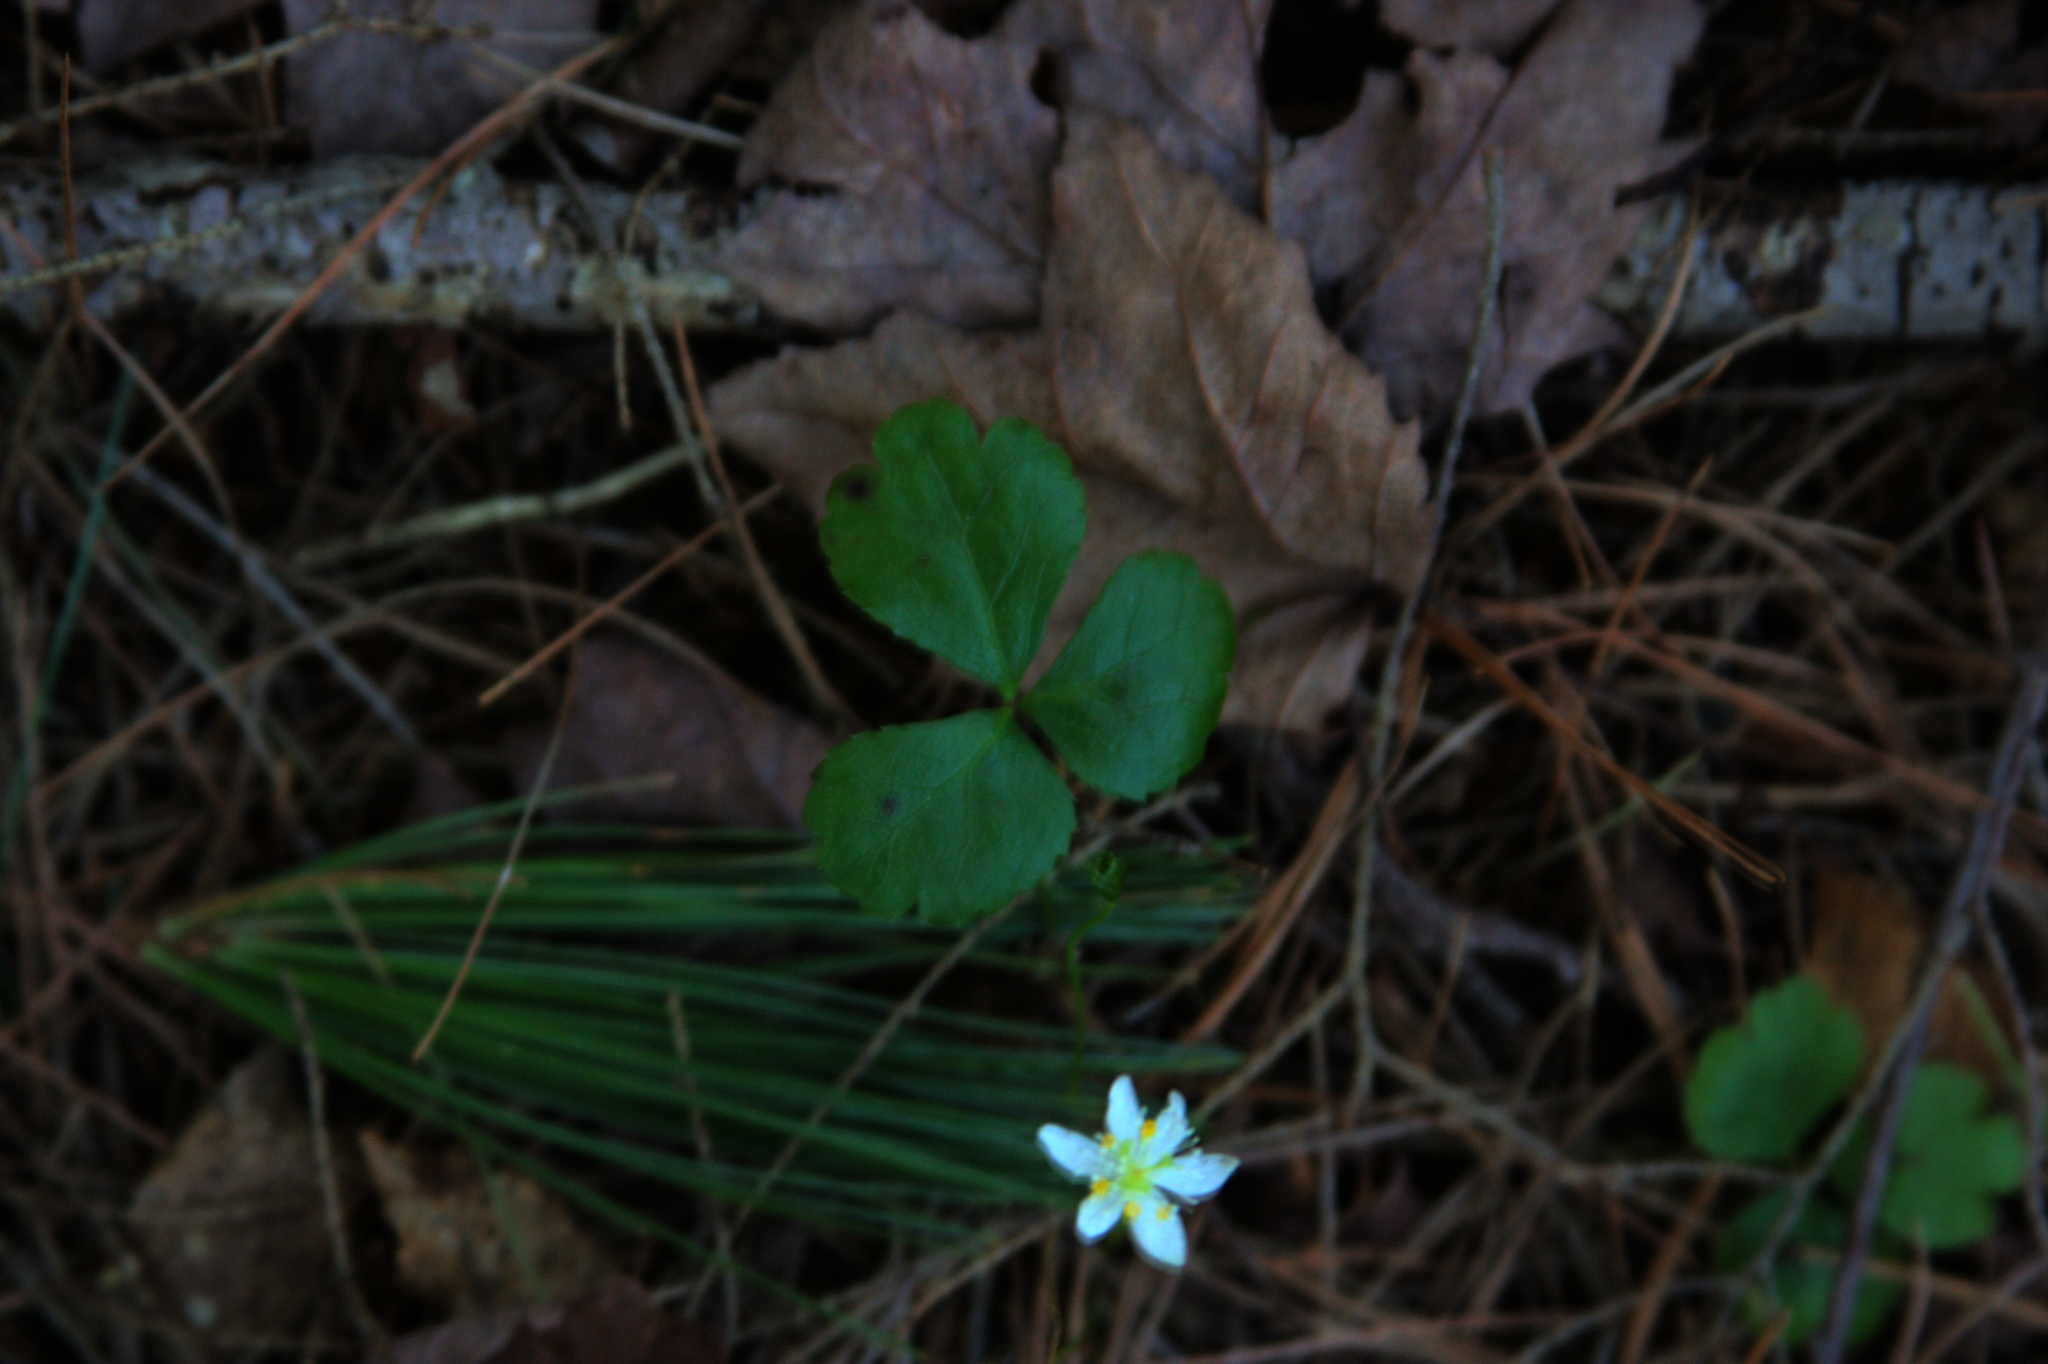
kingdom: Plantae
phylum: Tracheophyta
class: Magnoliopsida
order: Ranunculales
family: Ranunculaceae
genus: Coptis
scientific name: Coptis trifolia
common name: Canker-root
